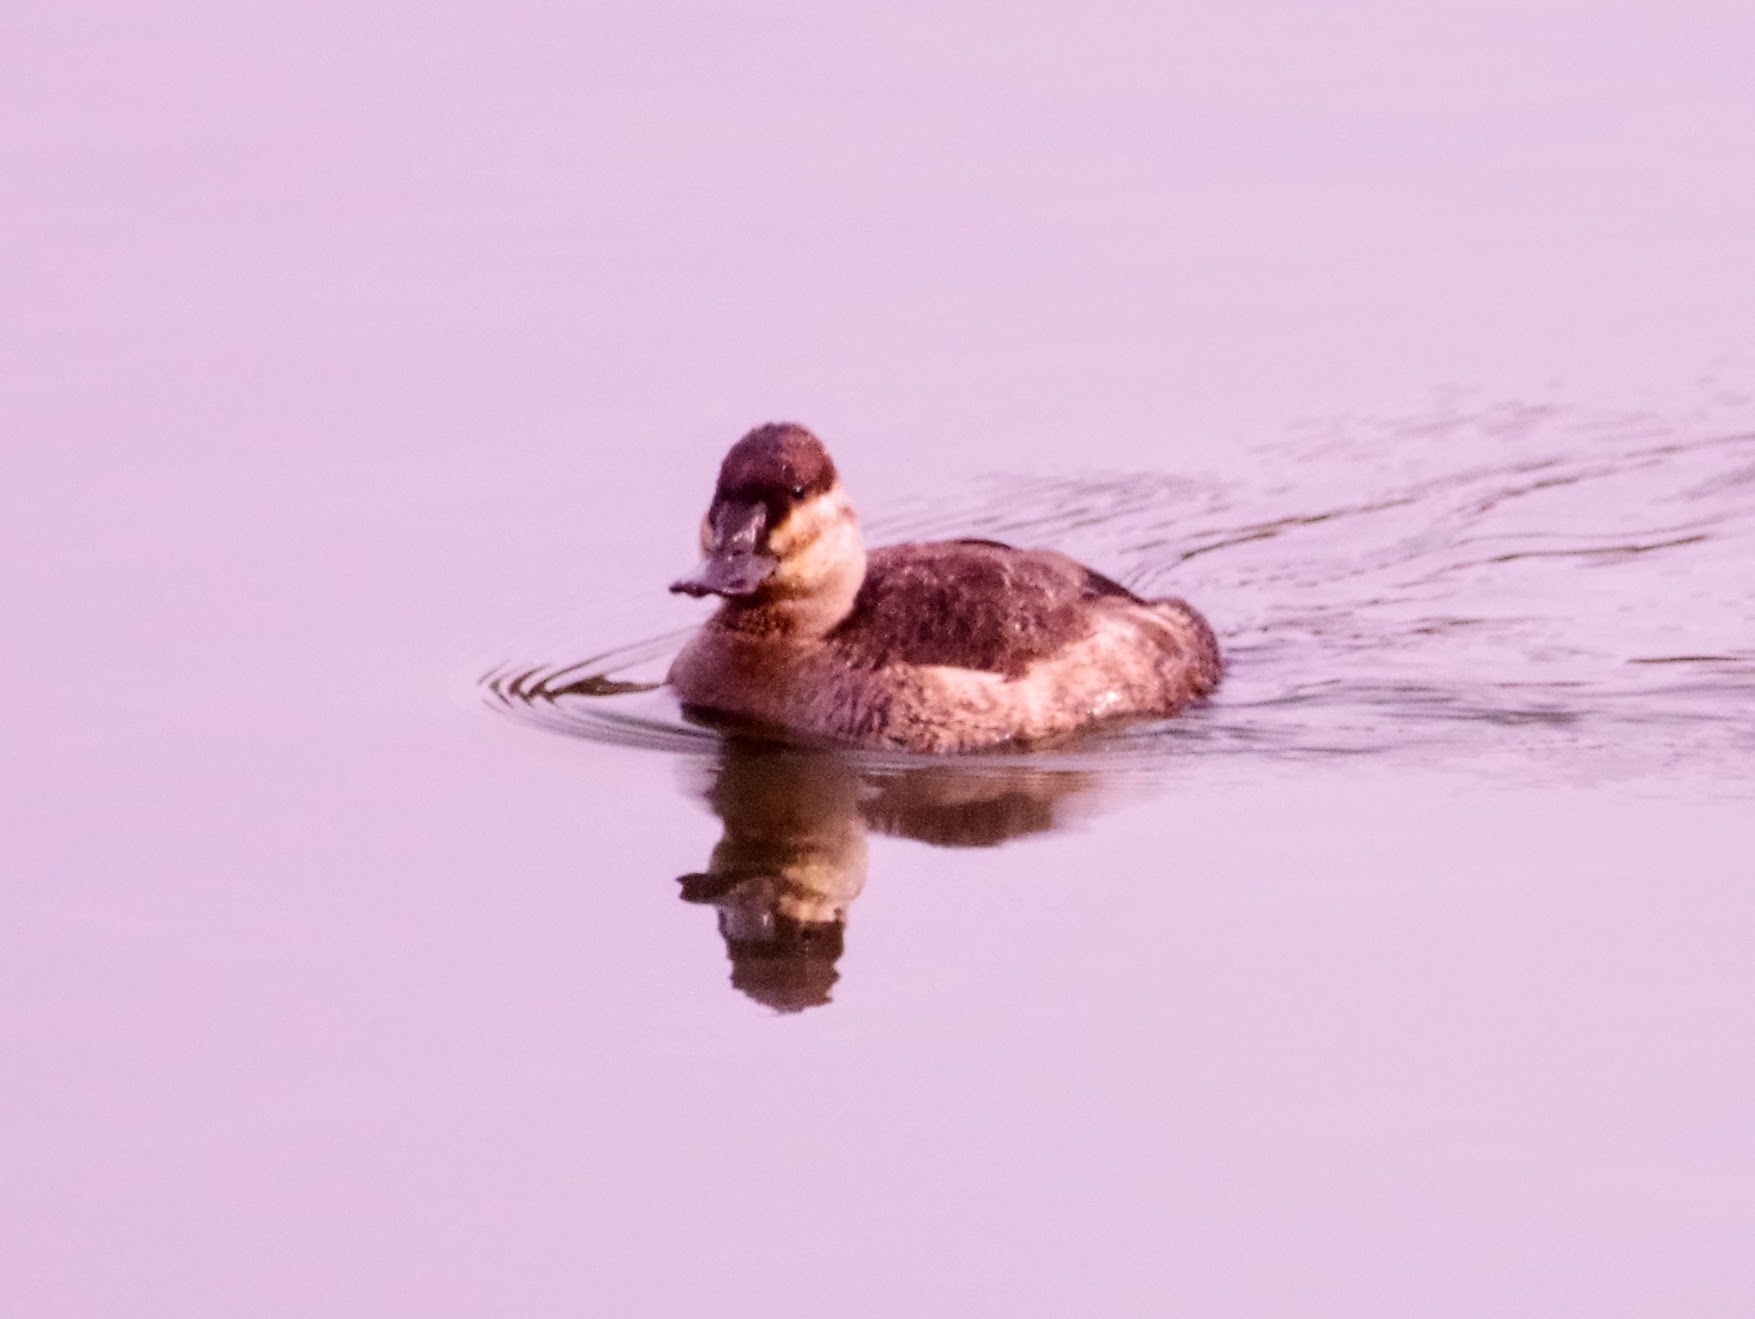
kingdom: Animalia
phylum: Chordata
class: Aves
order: Anseriformes
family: Anatidae
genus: Oxyura
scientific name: Oxyura jamaicensis
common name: Ruddy duck
